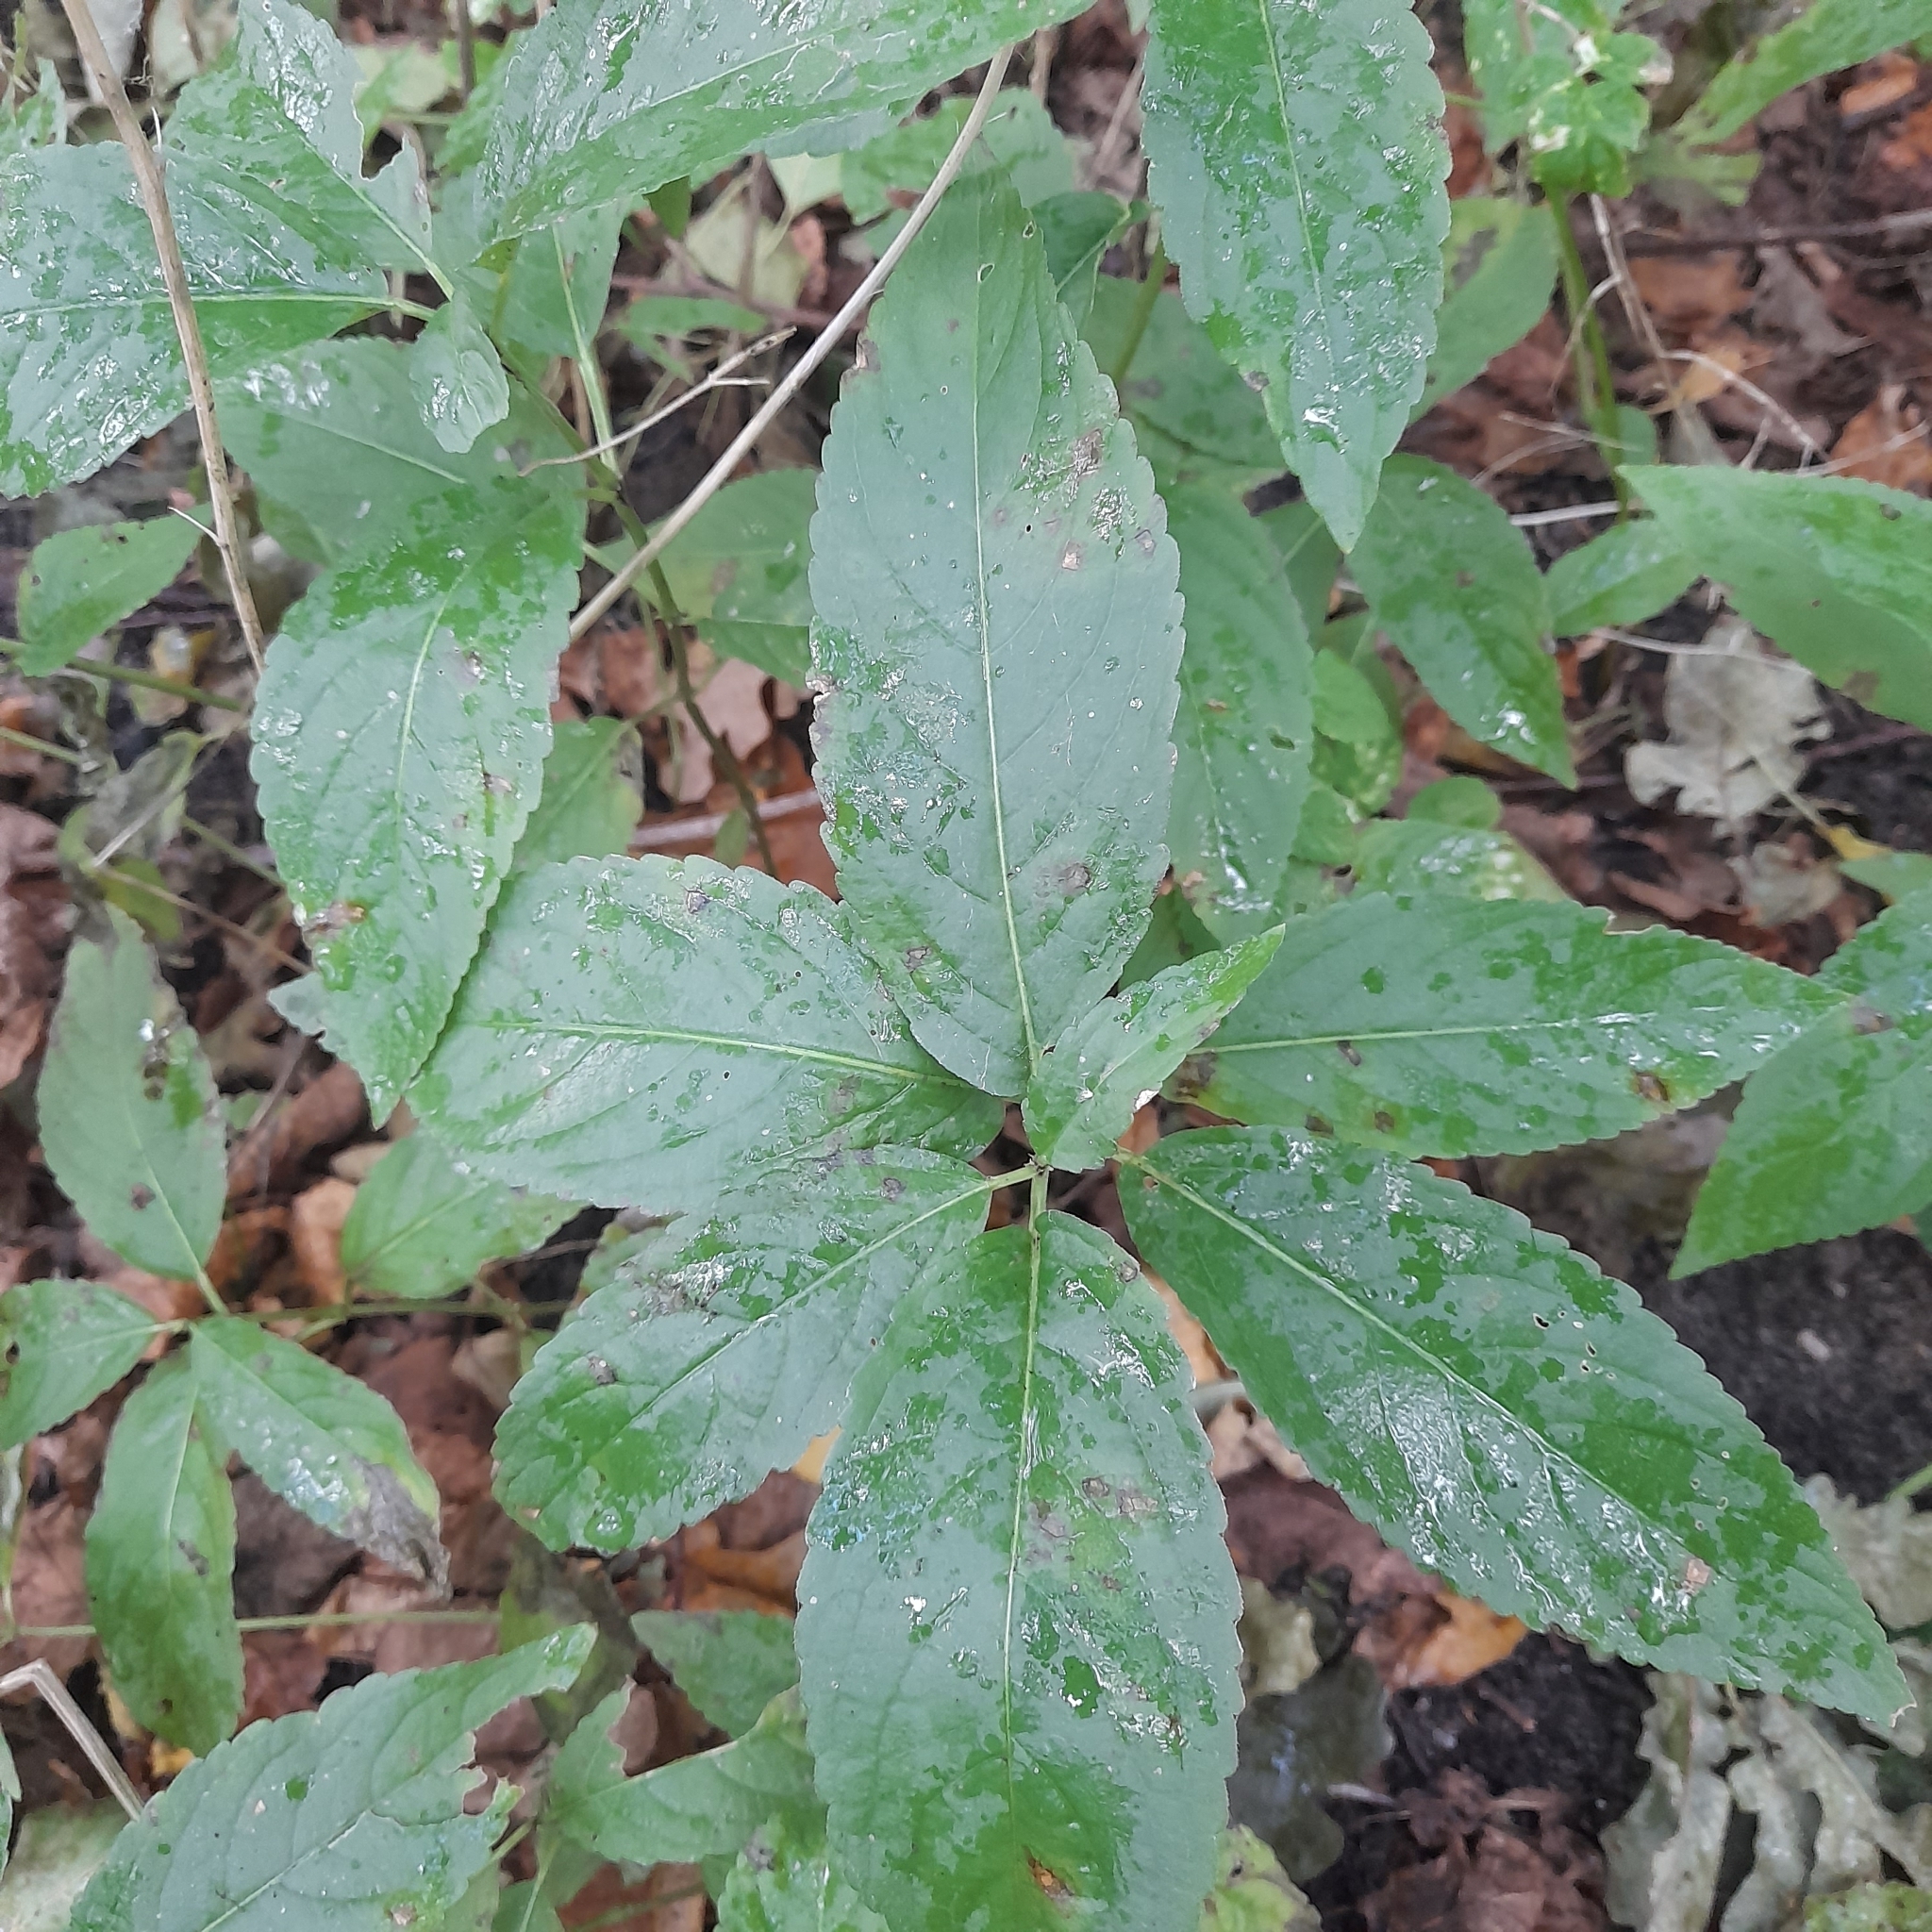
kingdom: Plantae
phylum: Tracheophyta
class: Magnoliopsida
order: Malpighiales
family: Euphorbiaceae
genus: Mercurialis
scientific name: Mercurialis perennis
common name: Dog mercury
